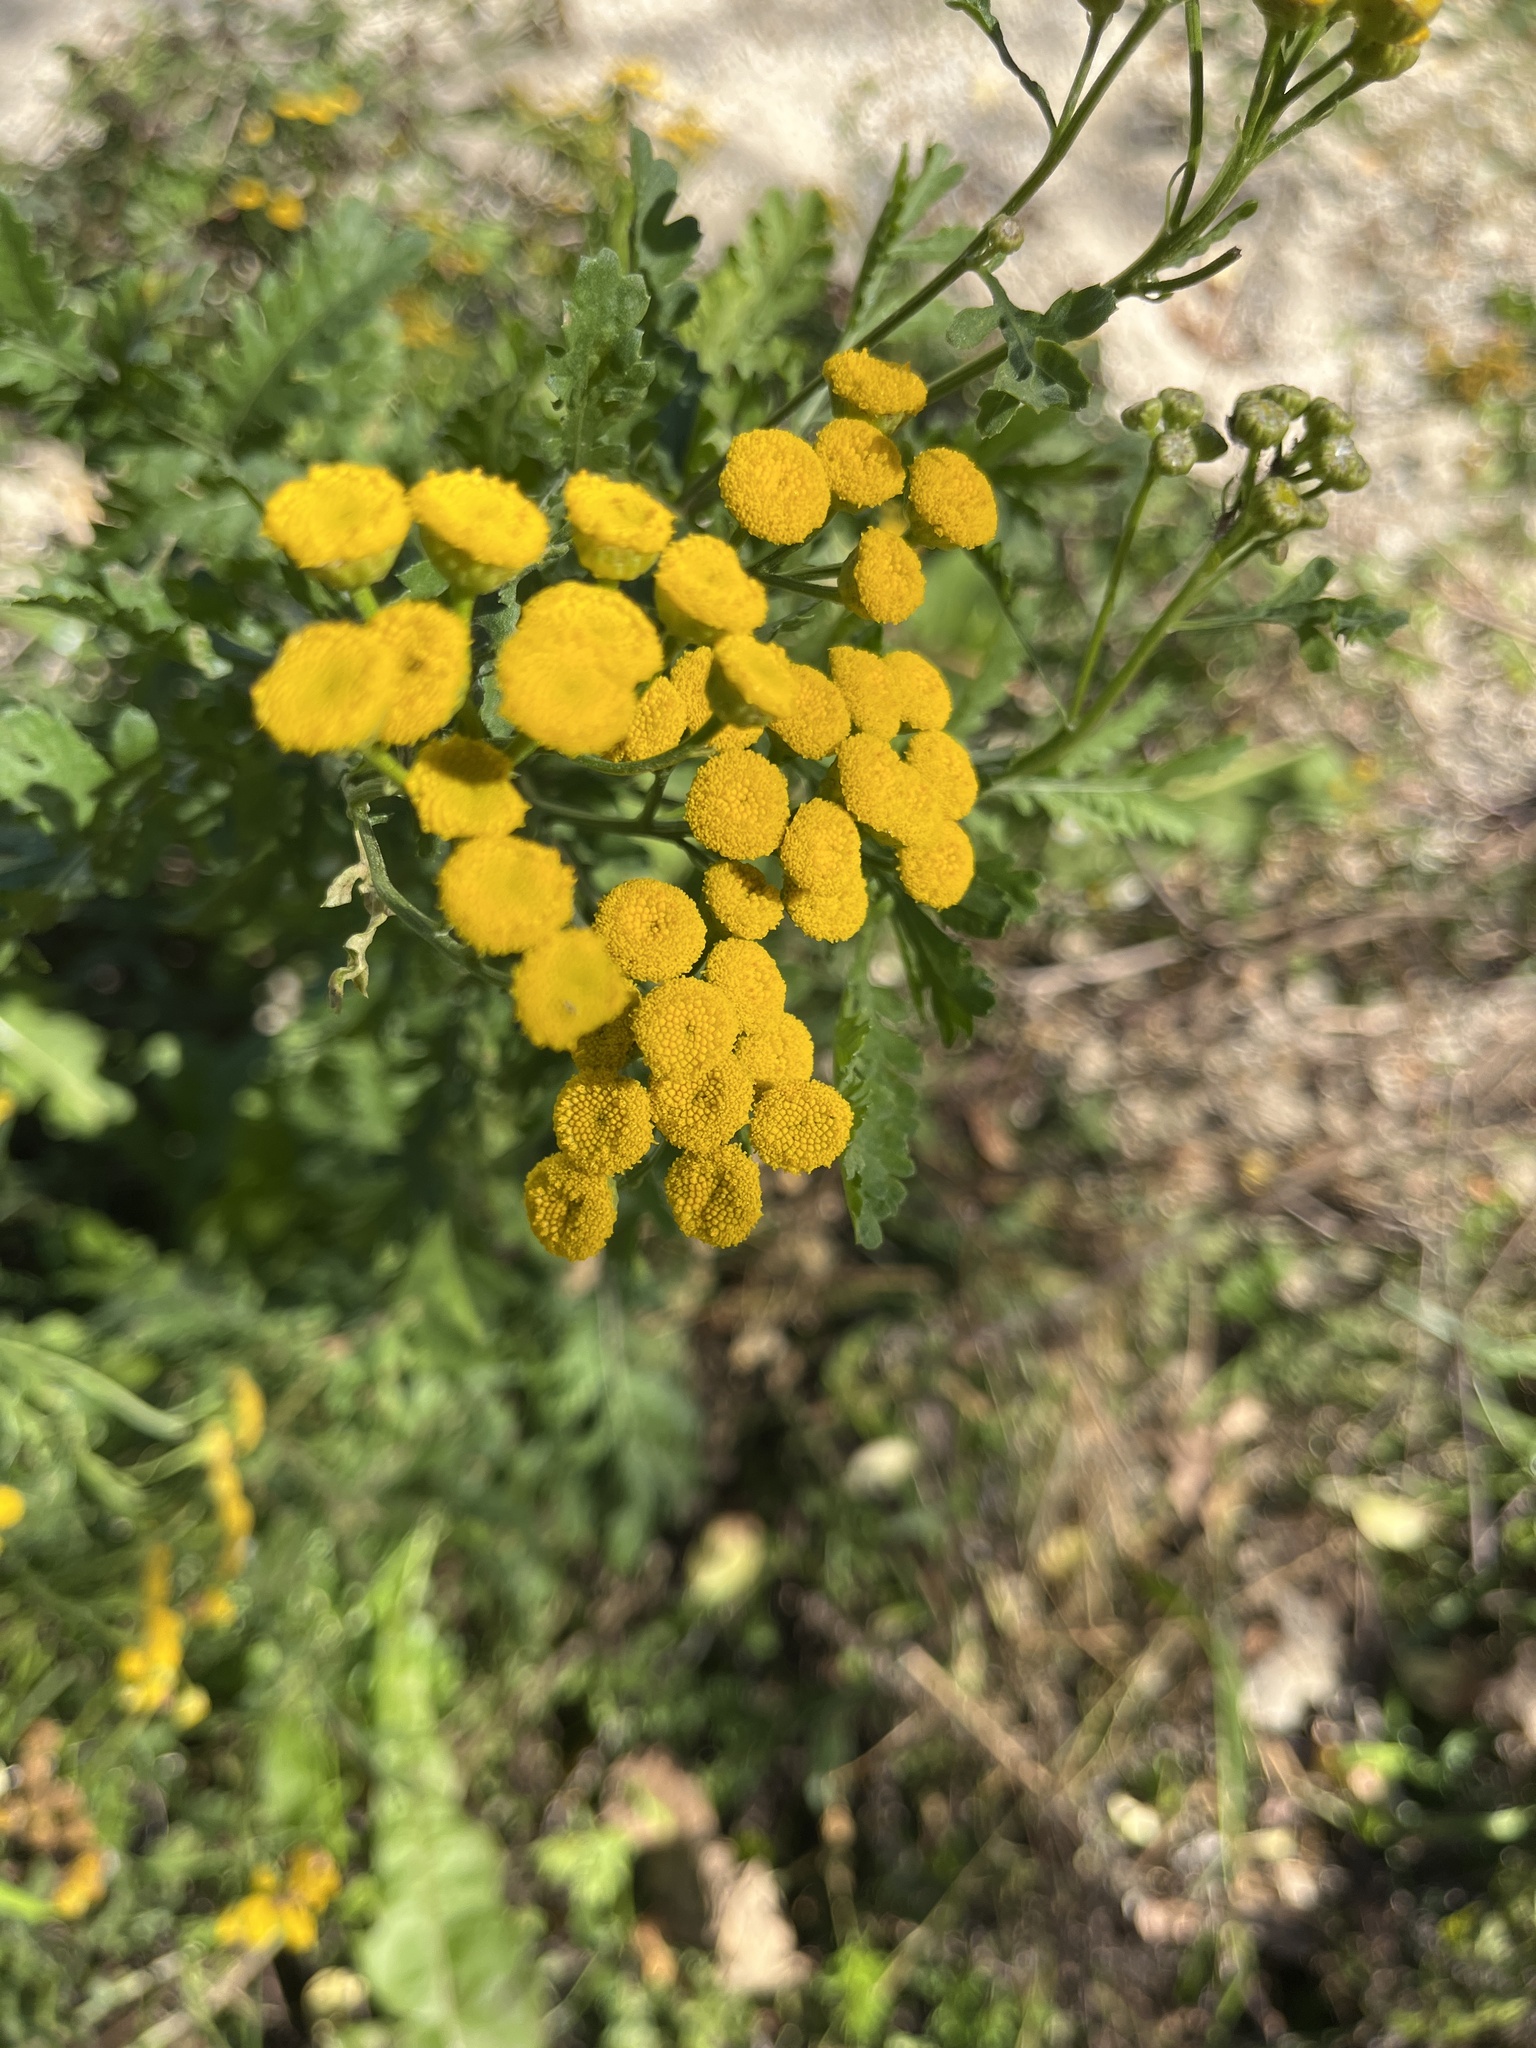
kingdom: Plantae
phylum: Tracheophyta
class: Magnoliopsida
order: Asterales
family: Asteraceae
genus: Tanacetum
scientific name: Tanacetum vulgare
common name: Common tansy
